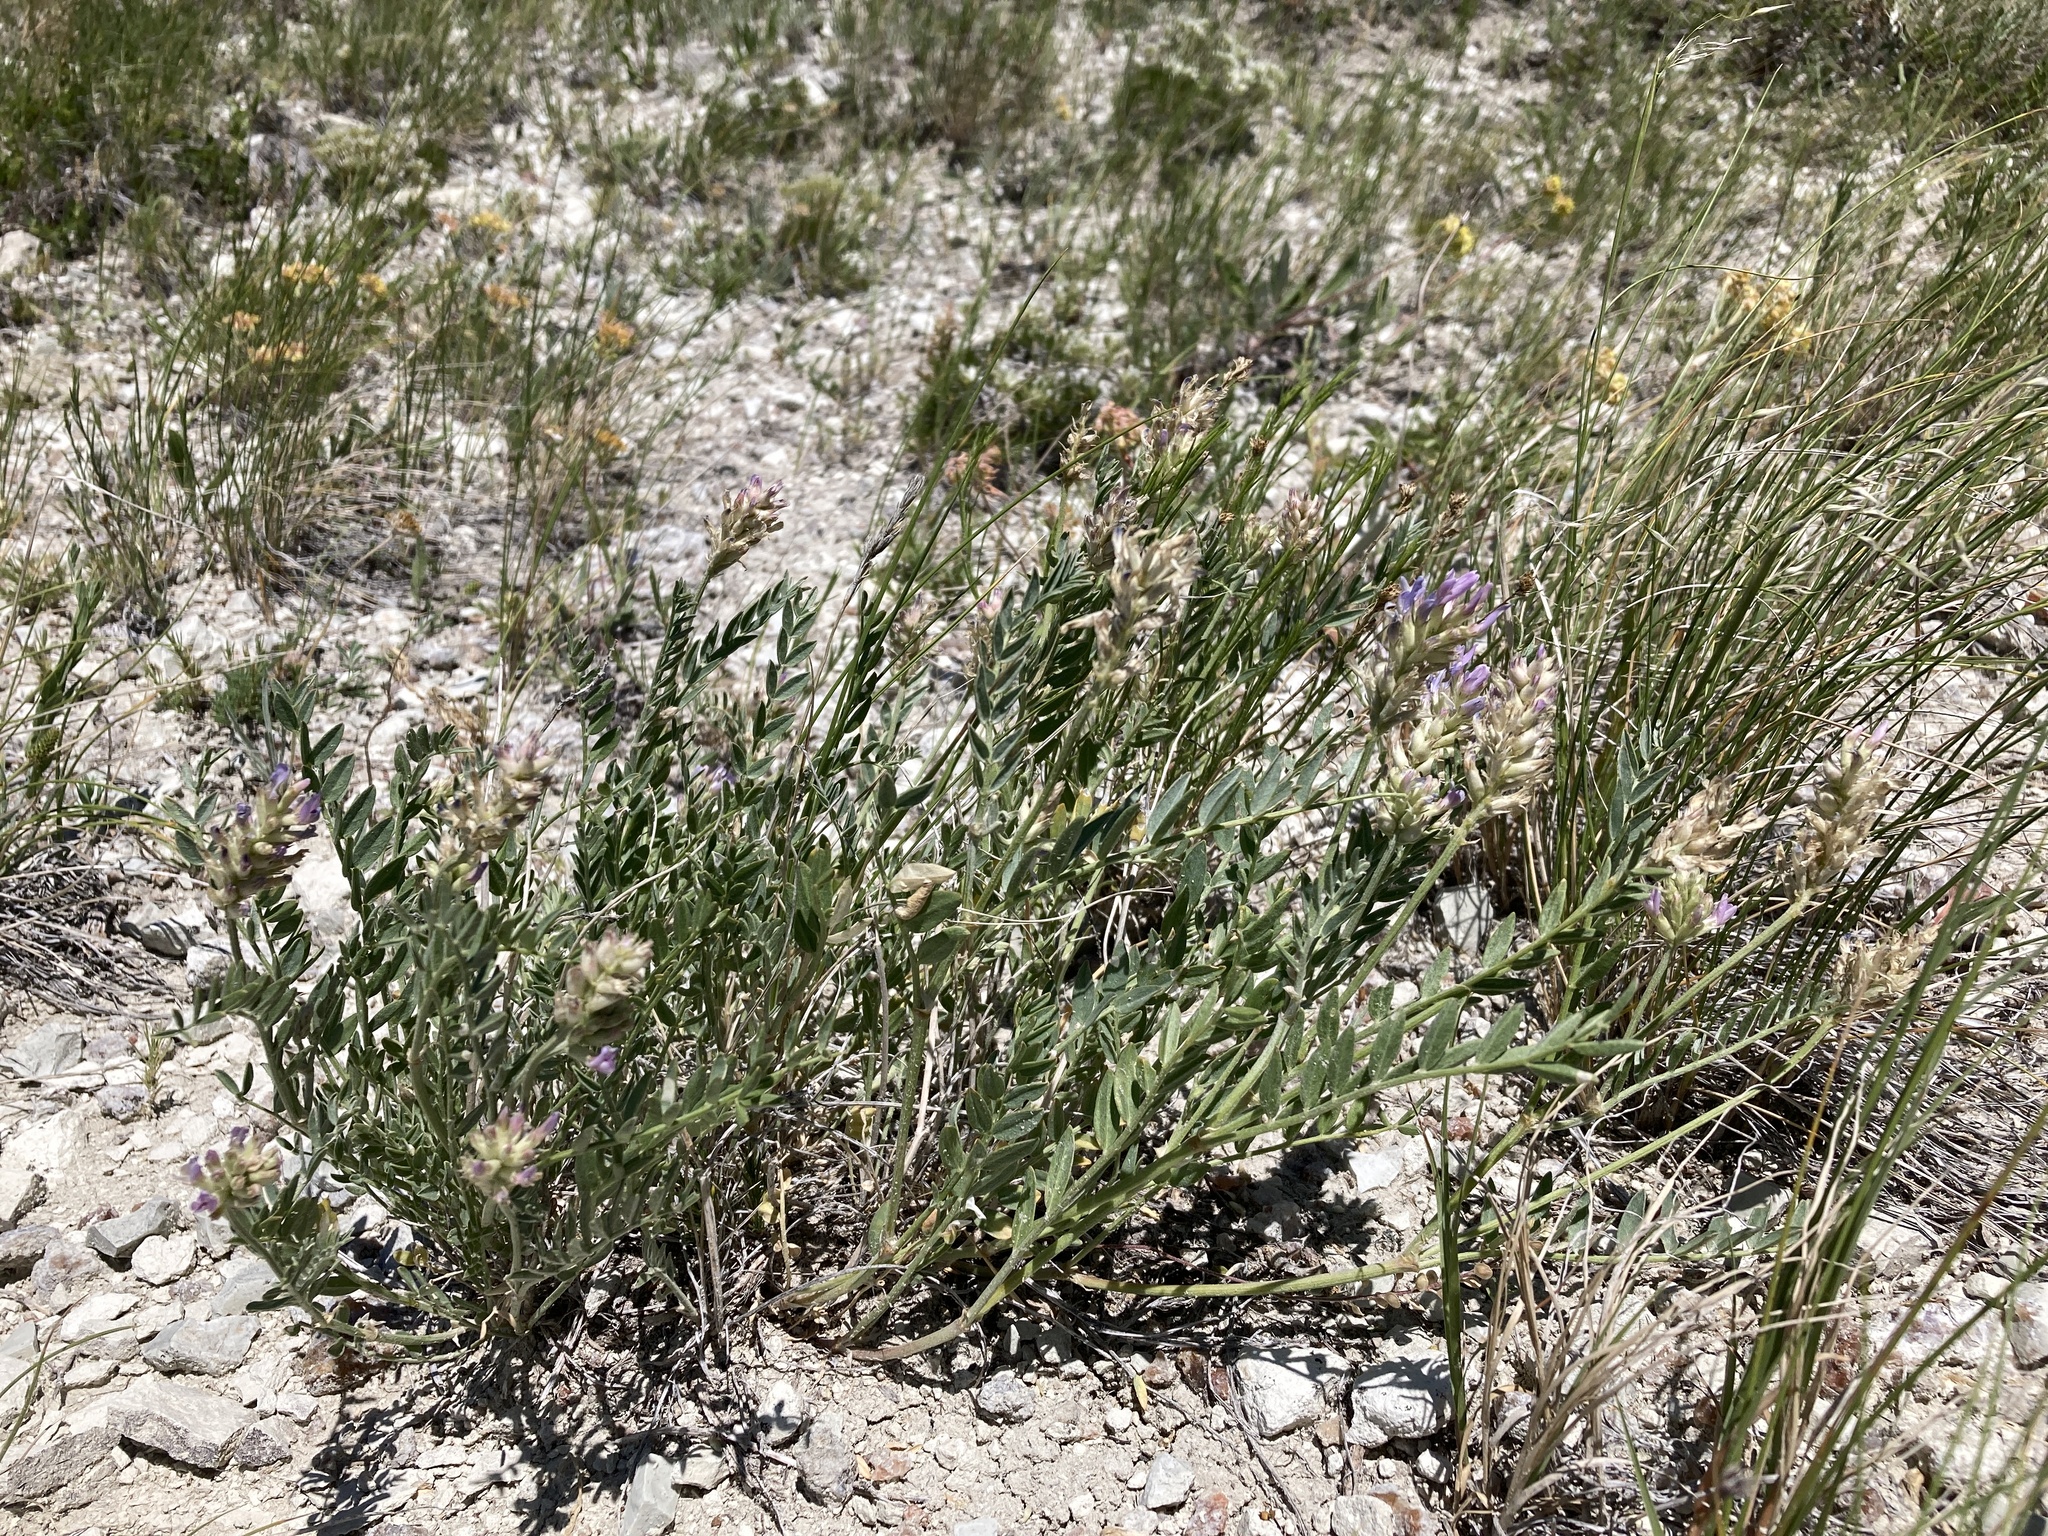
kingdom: Plantae
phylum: Tracheophyta
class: Magnoliopsida
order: Fabales
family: Fabaceae
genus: Astragalus
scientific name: Astragalus laxmannii
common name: Laxmann's milk-vetch
